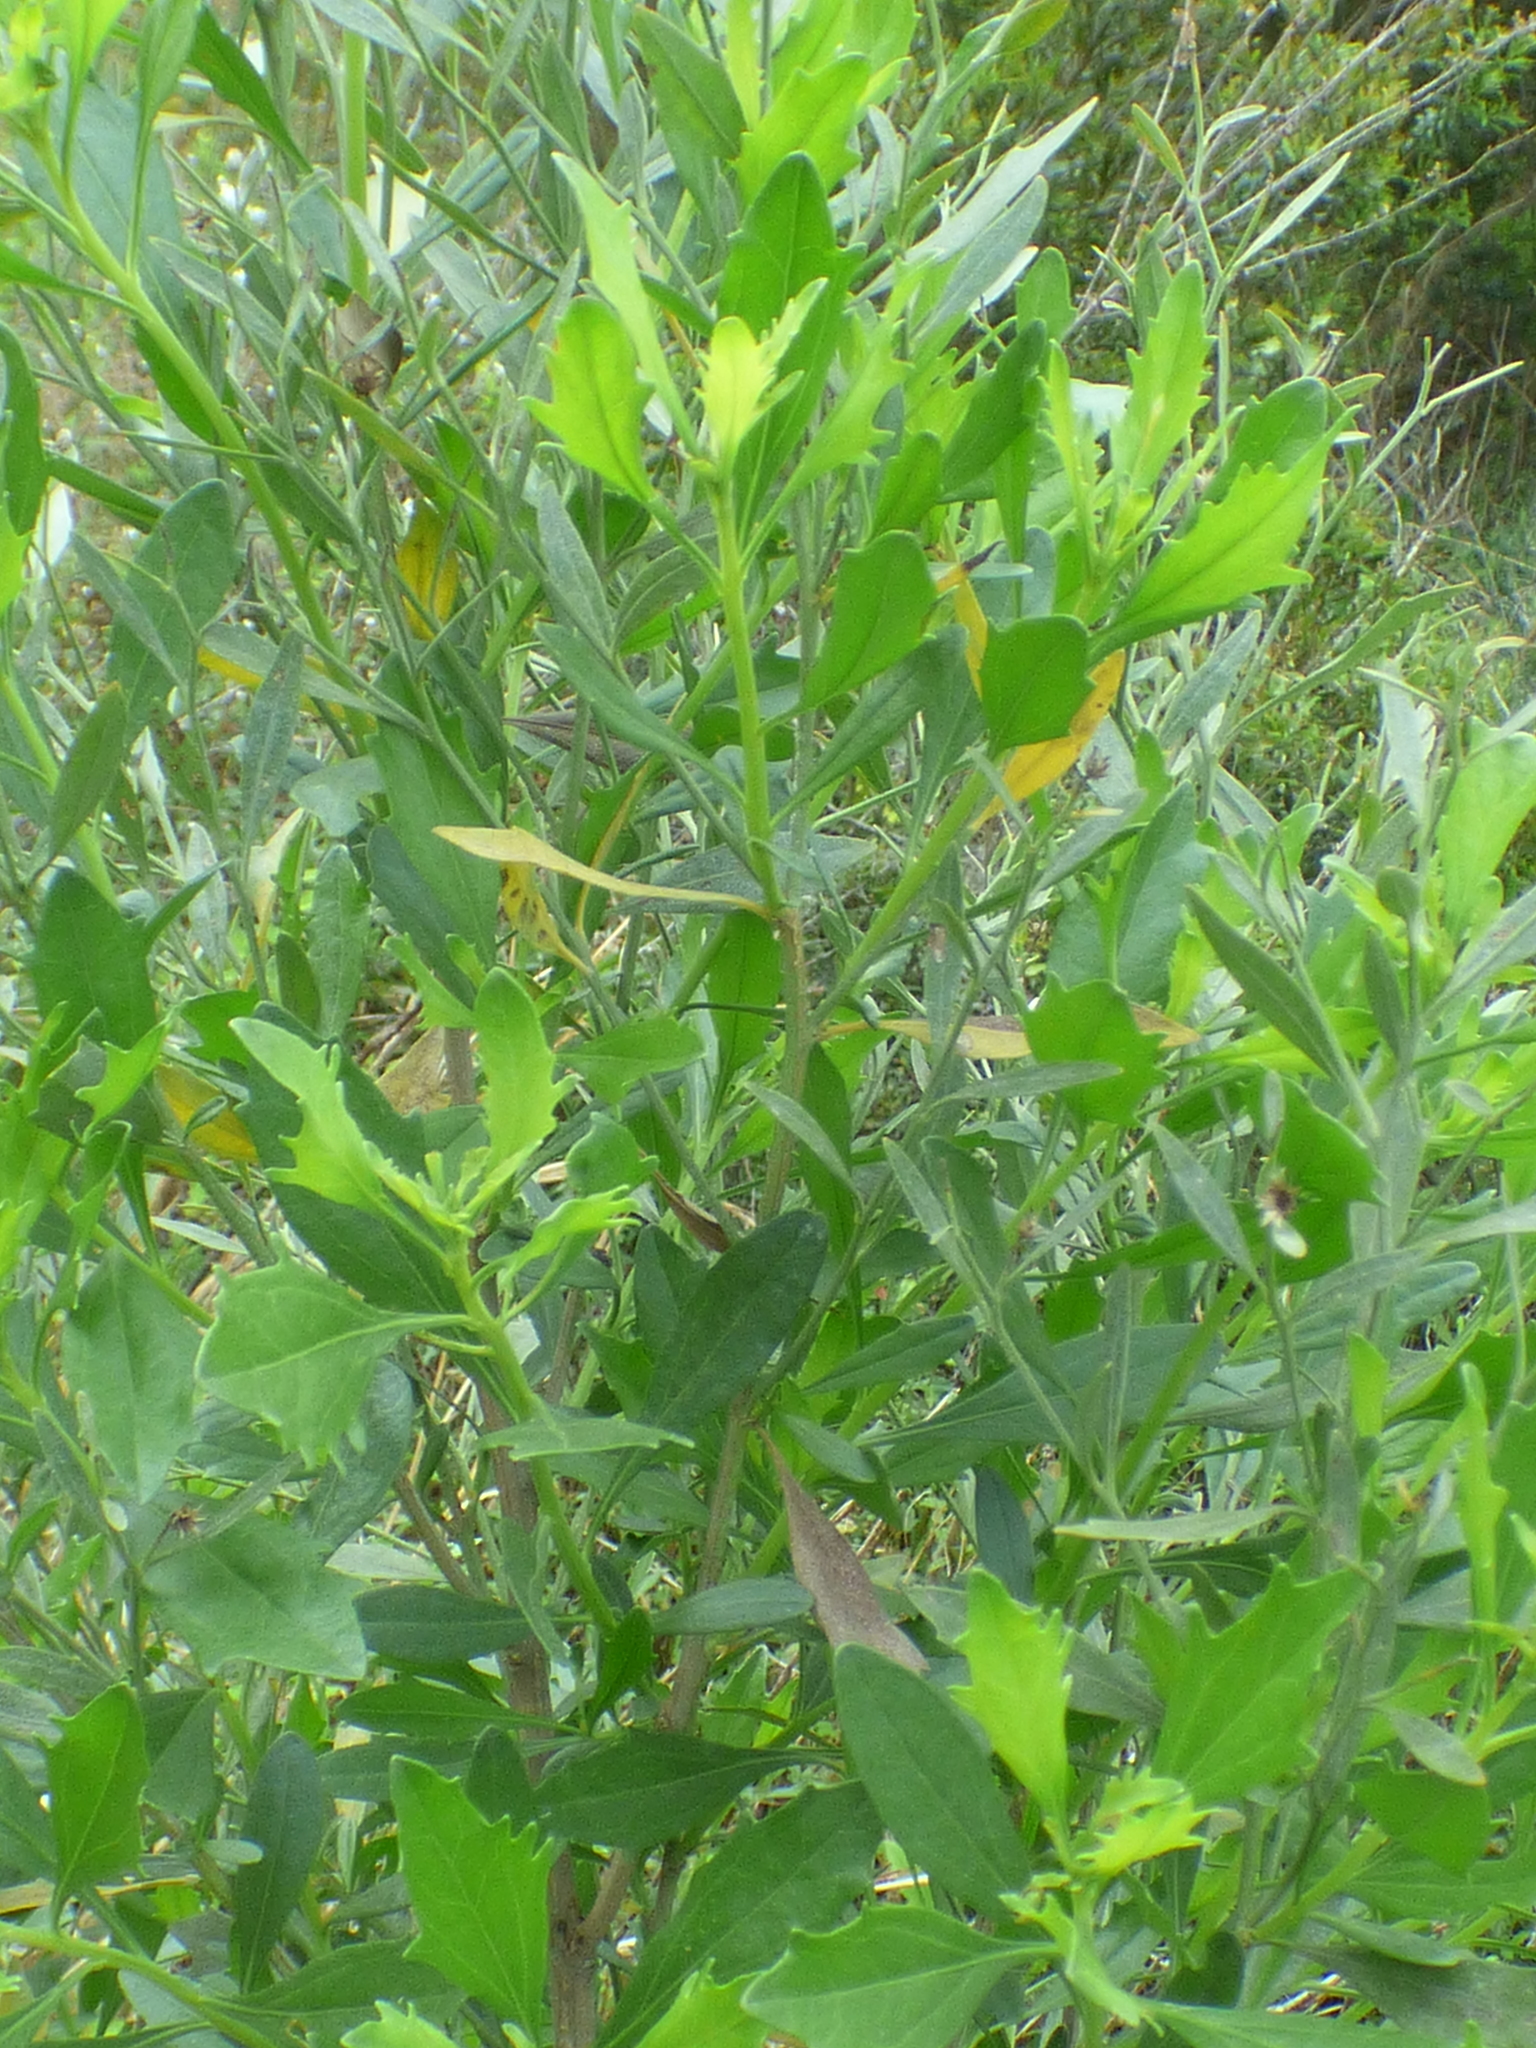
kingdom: Plantae
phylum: Tracheophyta
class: Magnoliopsida
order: Asterales
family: Asteraceae
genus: Baccharis
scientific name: Baccharis halimifolia
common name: Eastern baccharis
